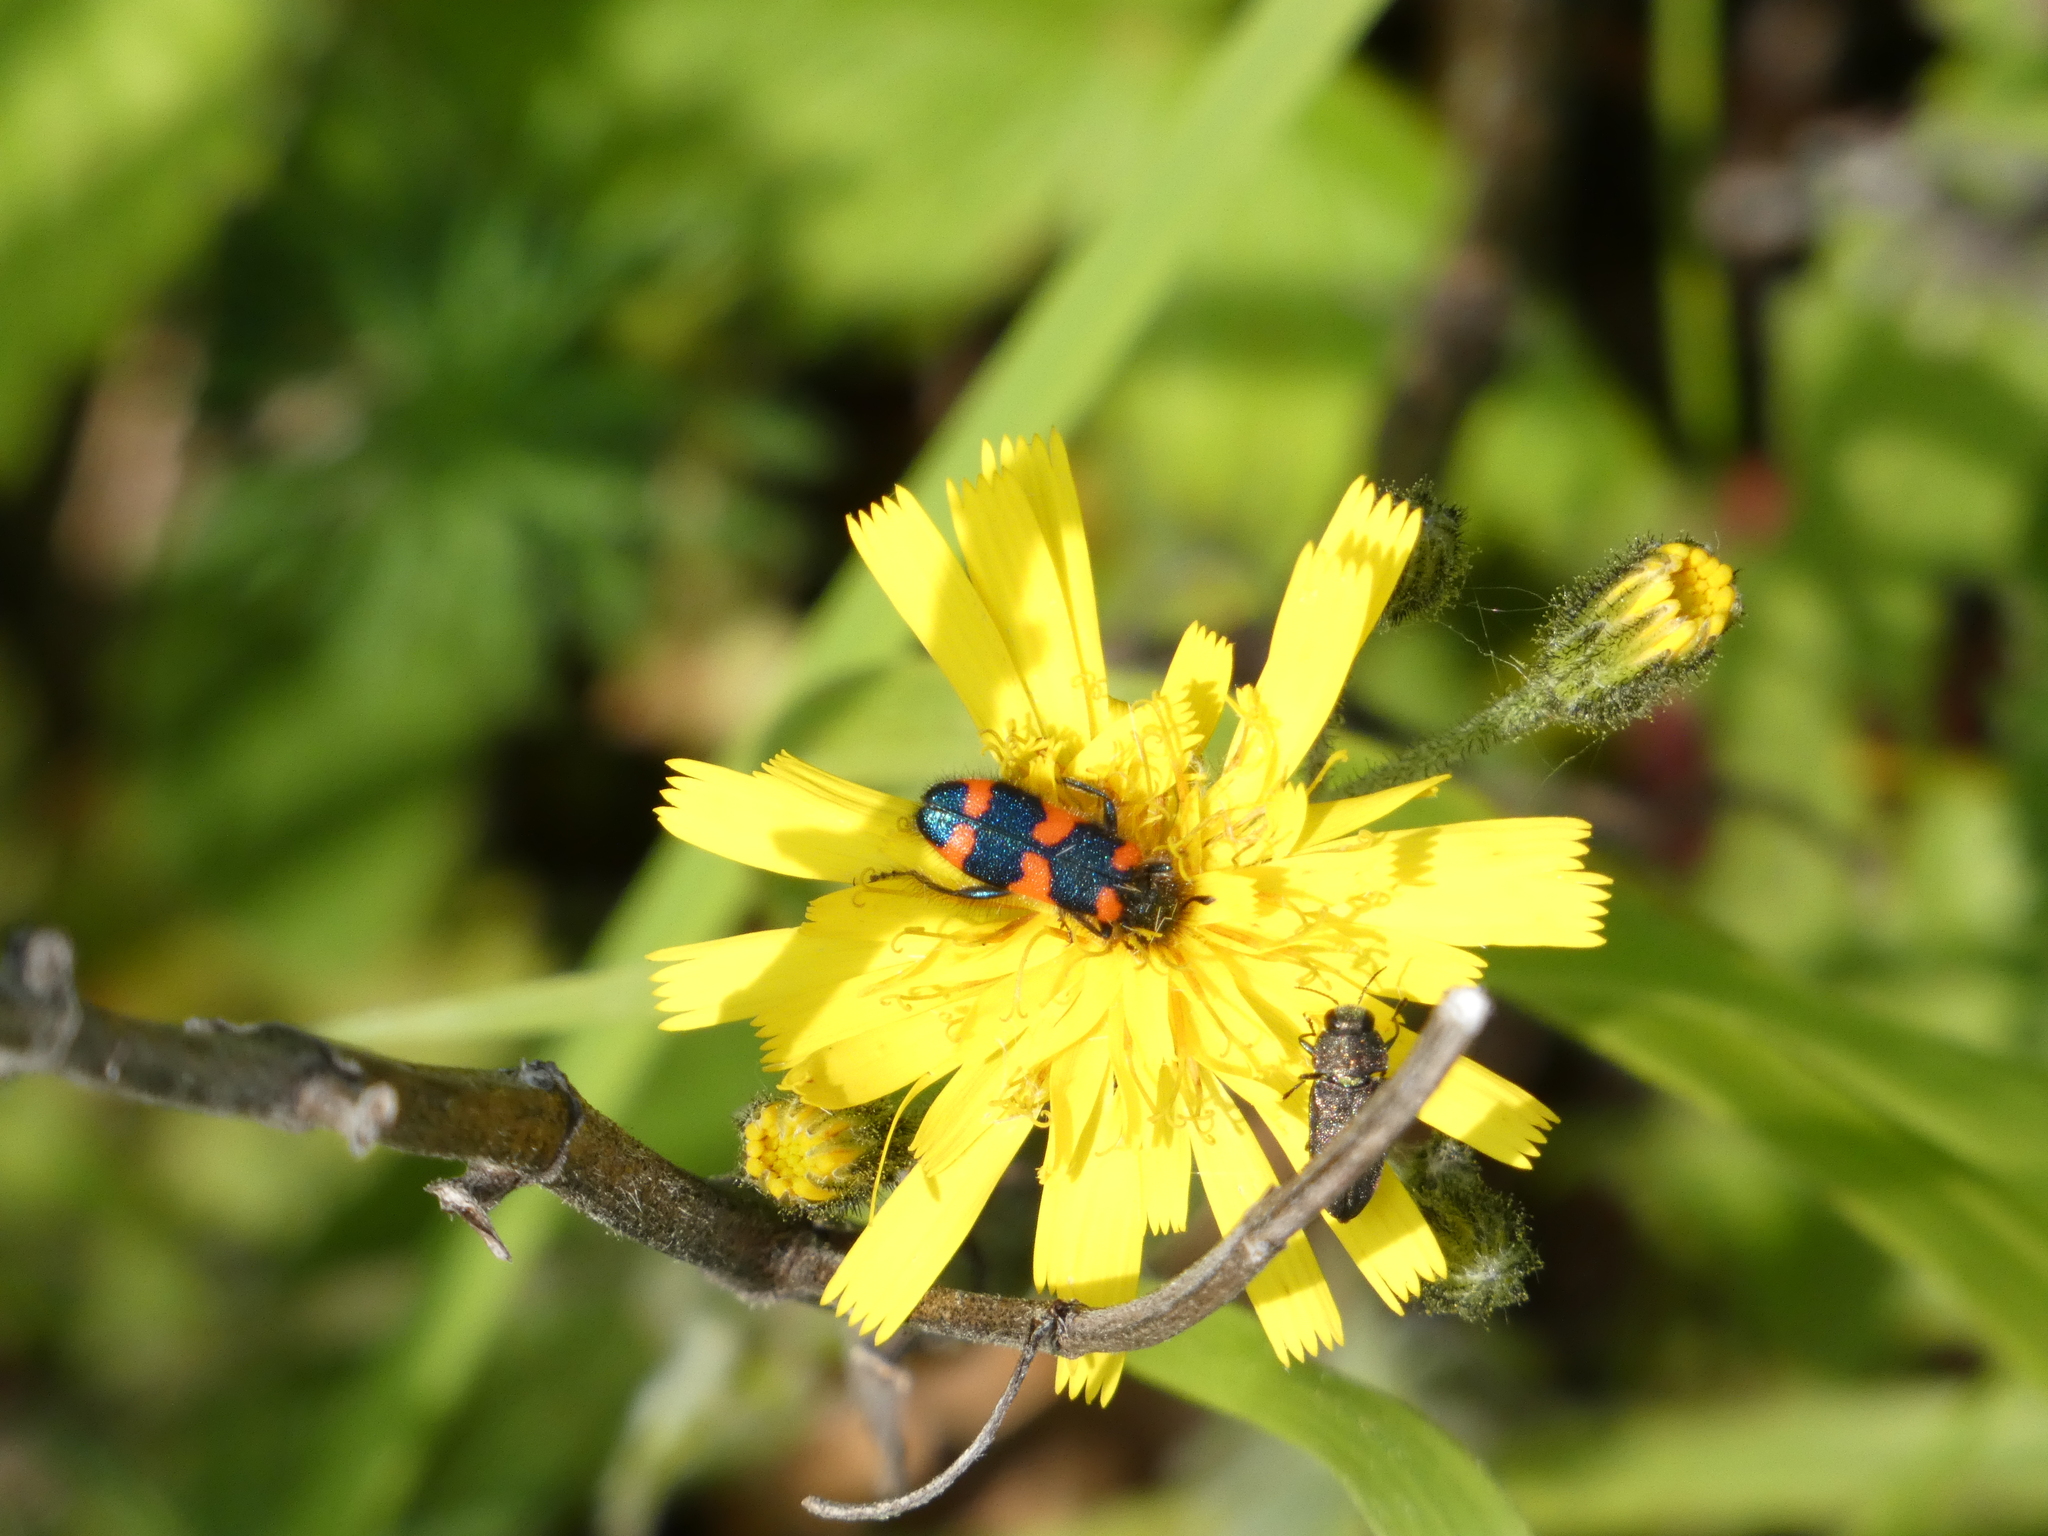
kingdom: Animalia
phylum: Arthropoda
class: Insecta
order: Coleoptera
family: Cleridae
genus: Trichodes
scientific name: Trichodes favarius
